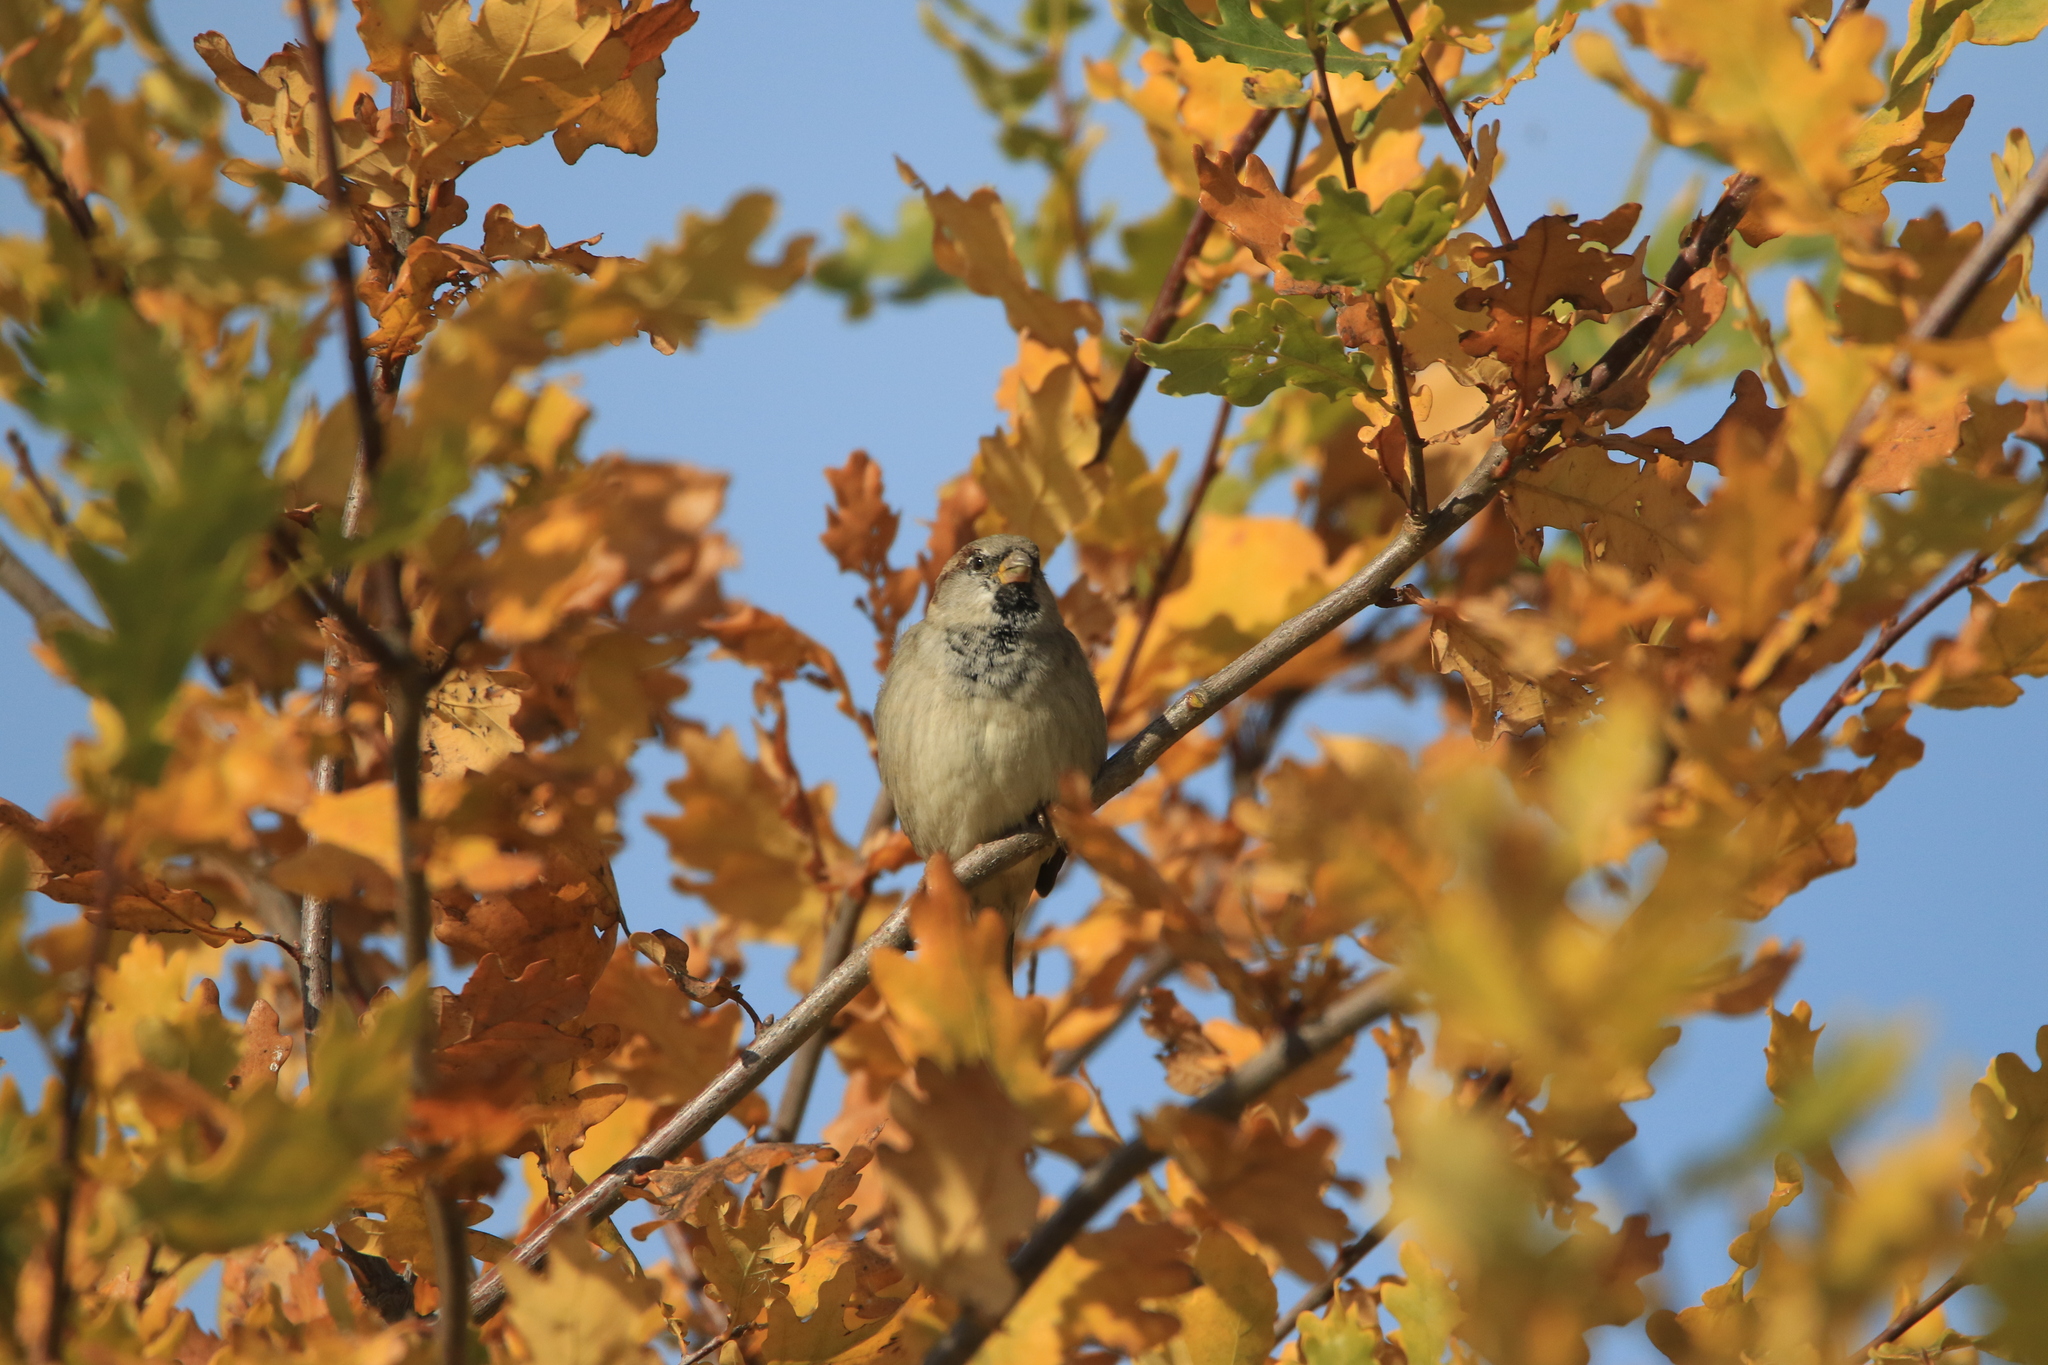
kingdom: Animalia
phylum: Chordata
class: Aves
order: Passeriformes
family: Passeridae
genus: Passer
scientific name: Passer domesticus
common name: House sparrow
